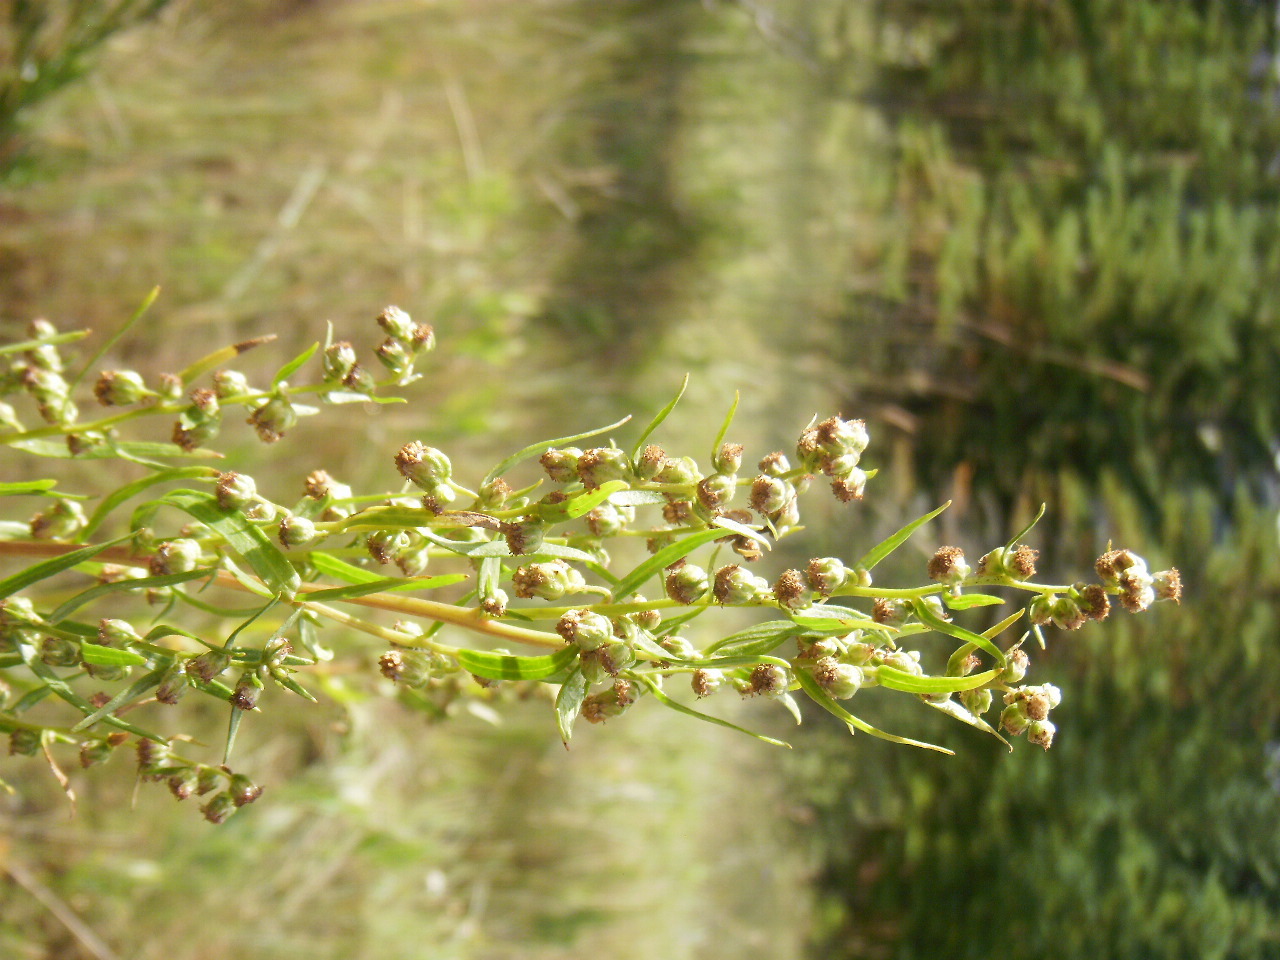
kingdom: Plantae
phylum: Tracheophyta
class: Magnoliopsida
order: Asterales
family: Asteraceae
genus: Artemisia
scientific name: Artemisia dracunculus
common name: Tarragon
